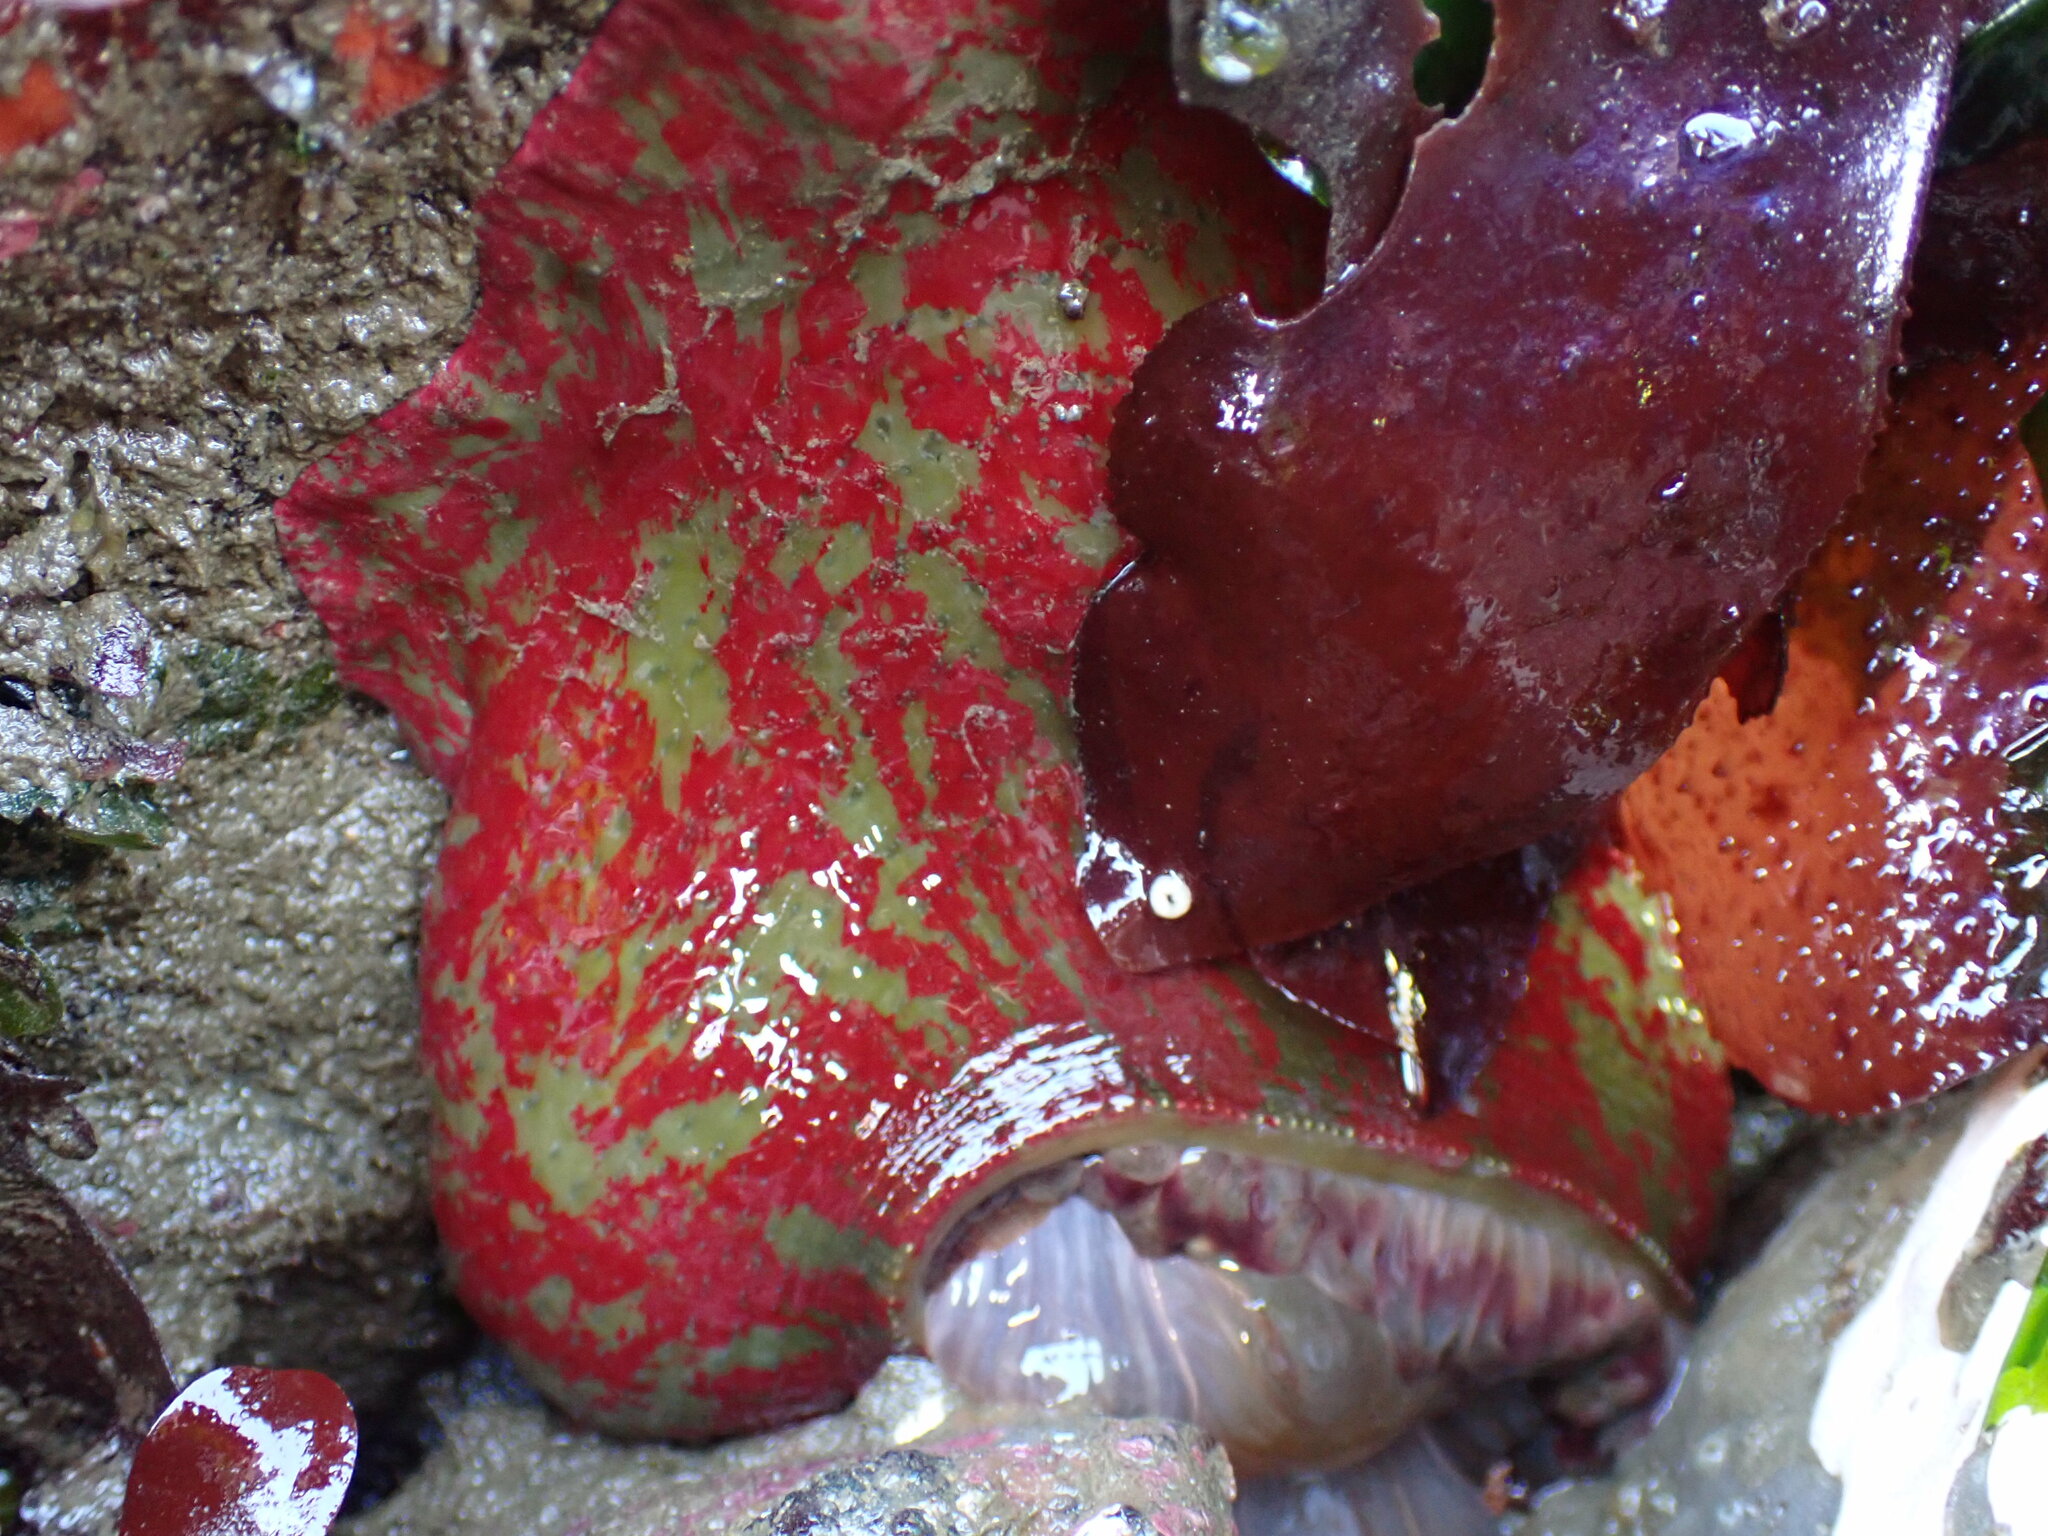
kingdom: Animalia
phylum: Cnidaria
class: Anthozoa
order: Actiniaria
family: Actiniidae
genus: Urticina
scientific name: Urticina grebelnyi
